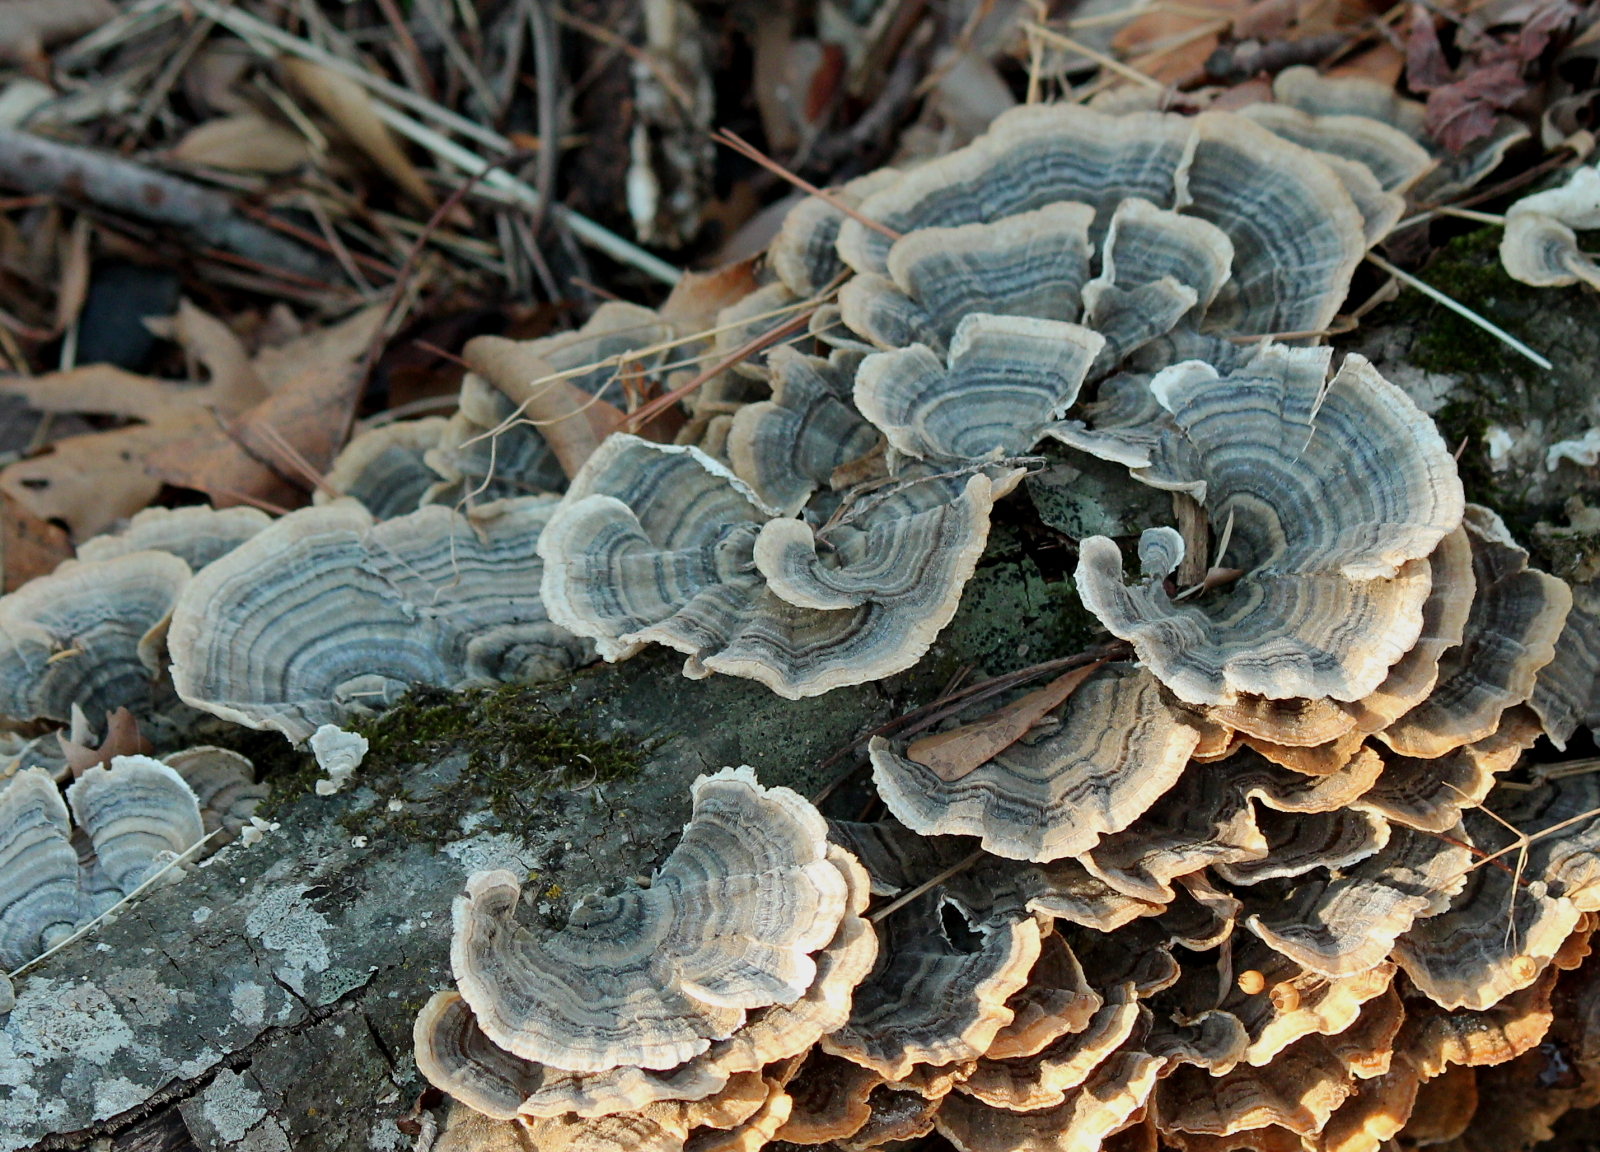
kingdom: Fungi
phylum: Basidiomycota
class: Agaricomycetes
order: Polyporales
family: Polyporaceae
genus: Trametes
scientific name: Trametes versicolor
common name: Turkeytail
